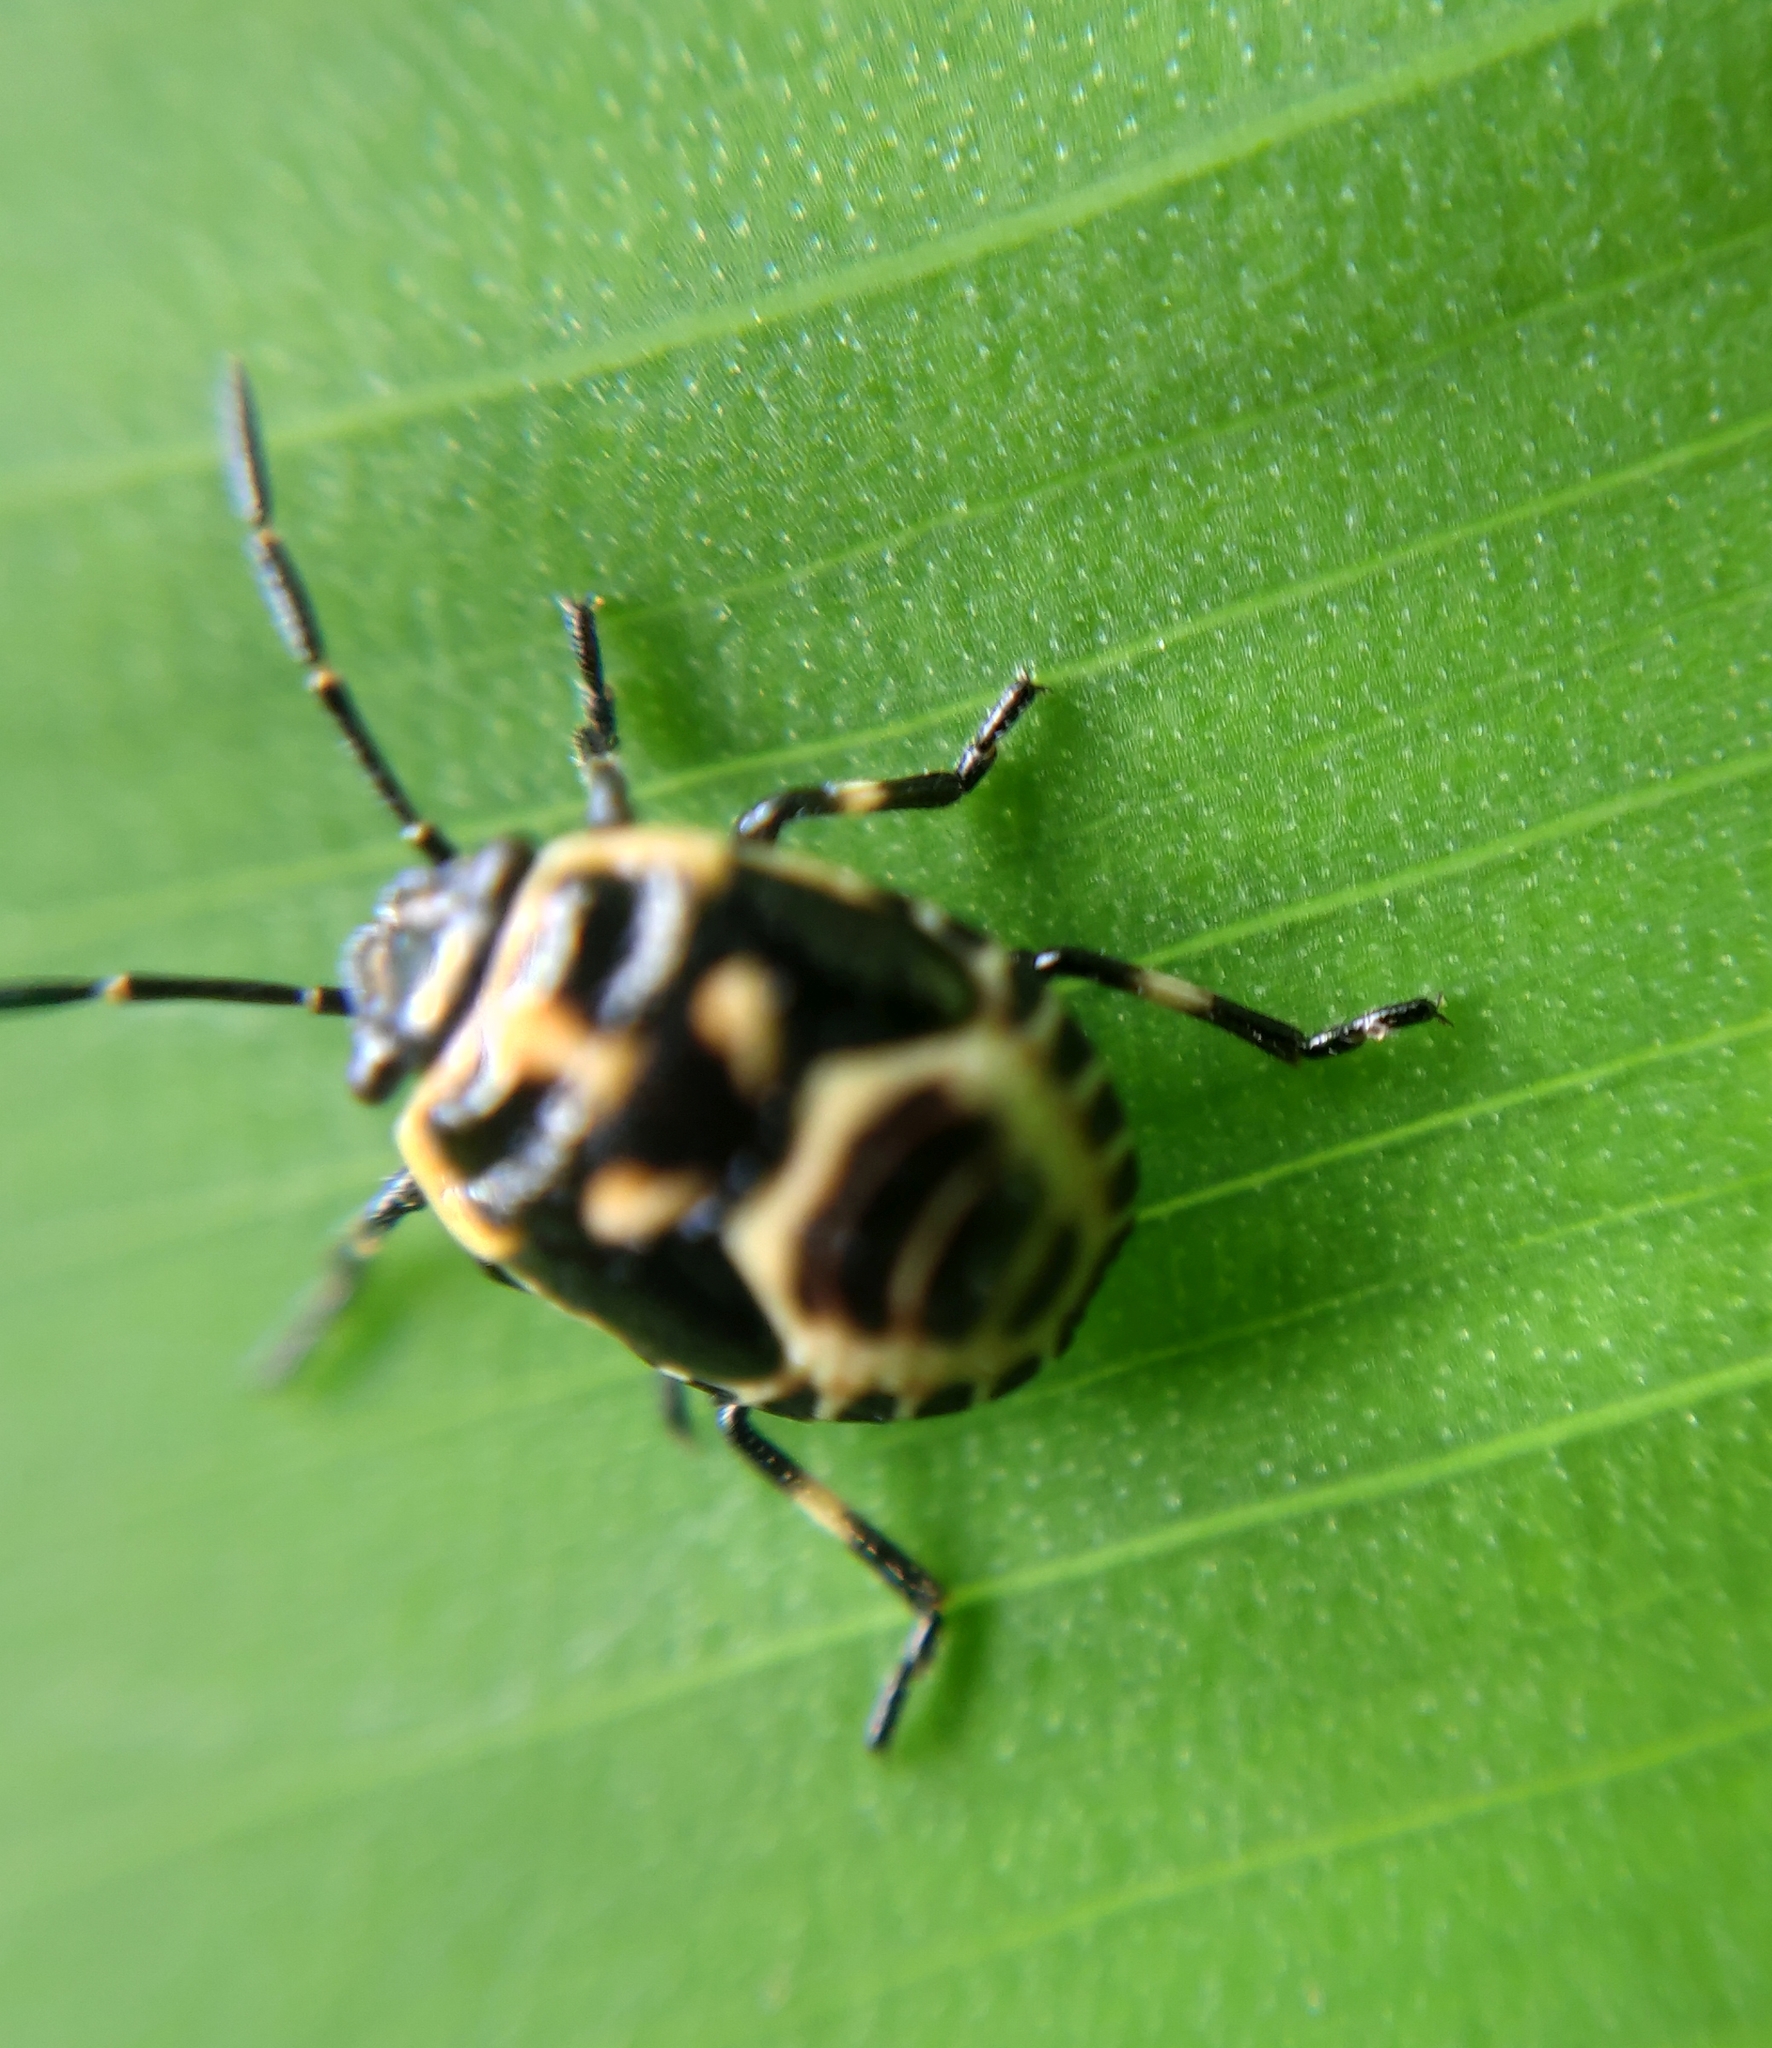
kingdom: Animalia
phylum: Arthropoda
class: Insecta
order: Hemiptera
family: Pentatomidae
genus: Eurydema
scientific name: Eurydema oleracea
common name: Cabbage bug
